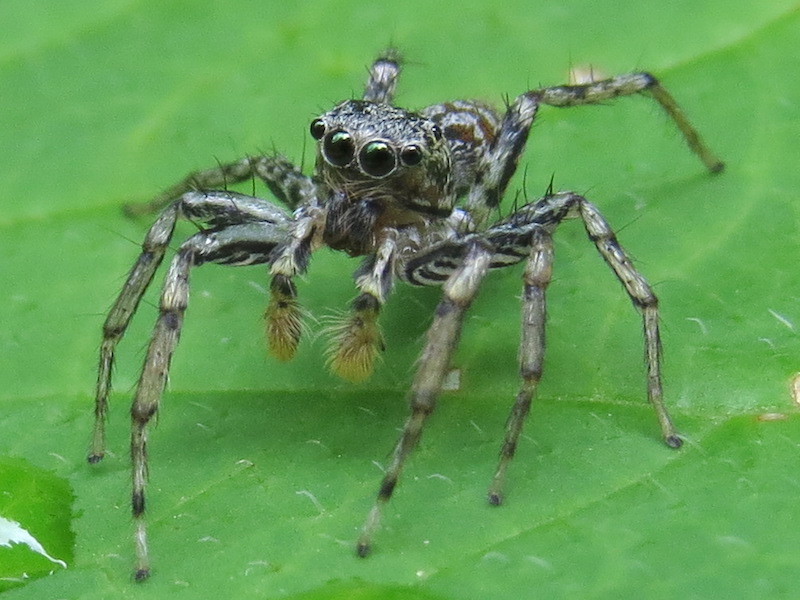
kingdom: Animalia
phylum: Arthropoda
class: Arachnida
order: Araneae
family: Salticidae
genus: Maevia
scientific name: Maevia inclemens
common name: Dimorphic jumper
